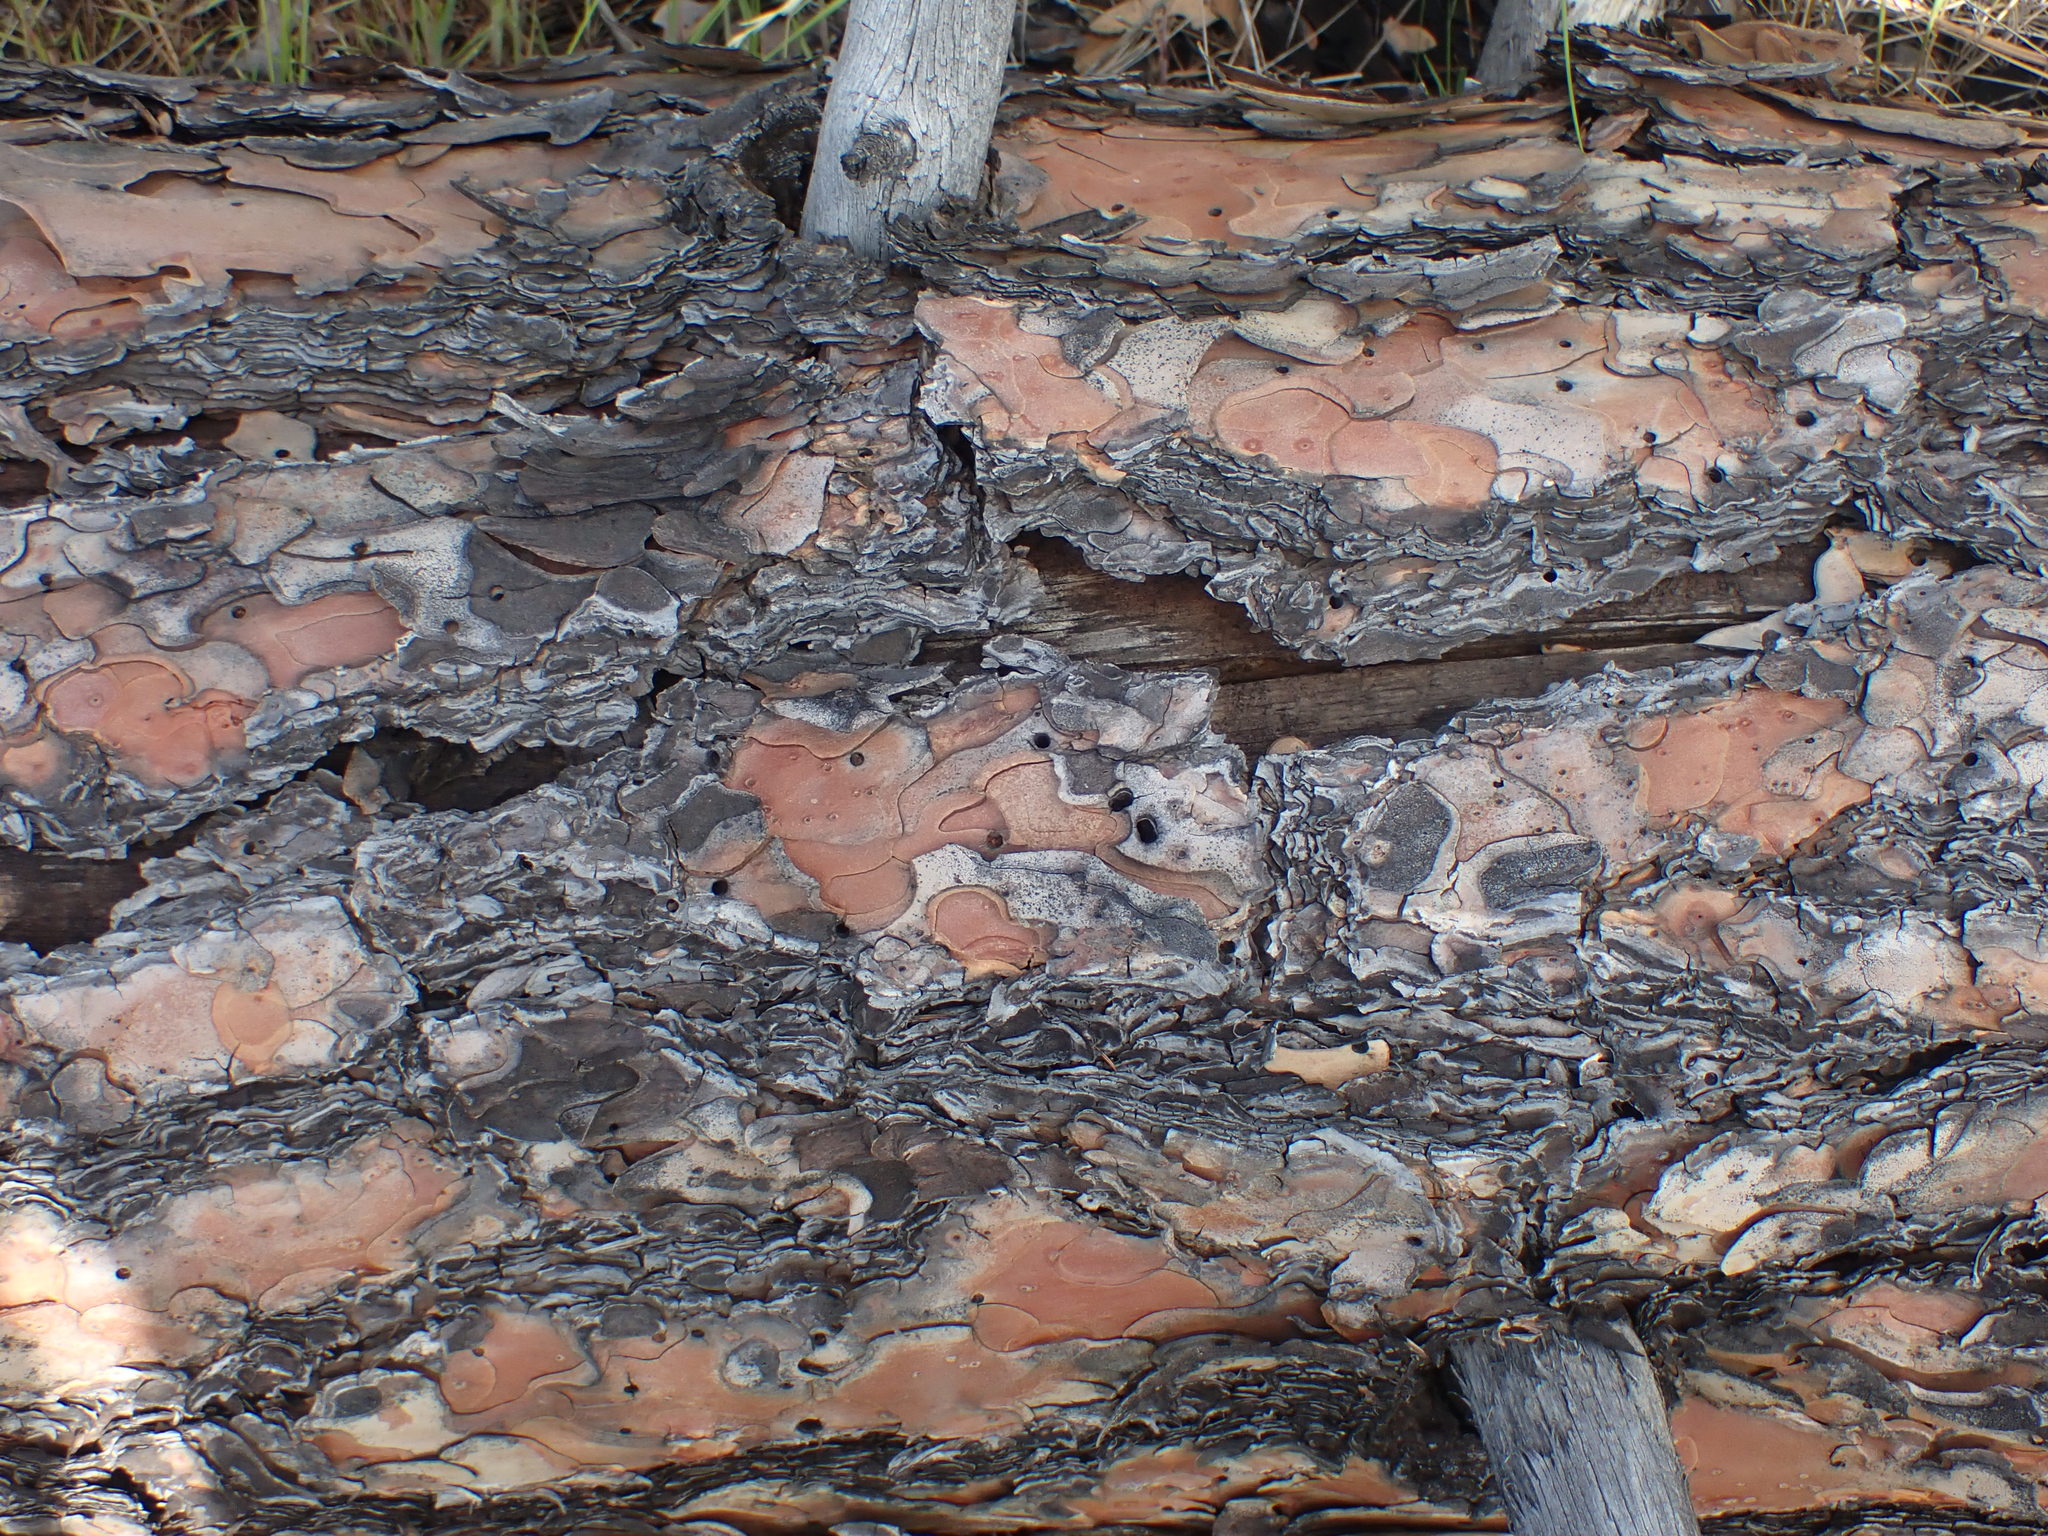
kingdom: Plantae
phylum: Tracheophyta
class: Pinopsida
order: Pinales
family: Pinaceae
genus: Pinus
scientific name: Pinus ponderosa
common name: Western yellow-pine
